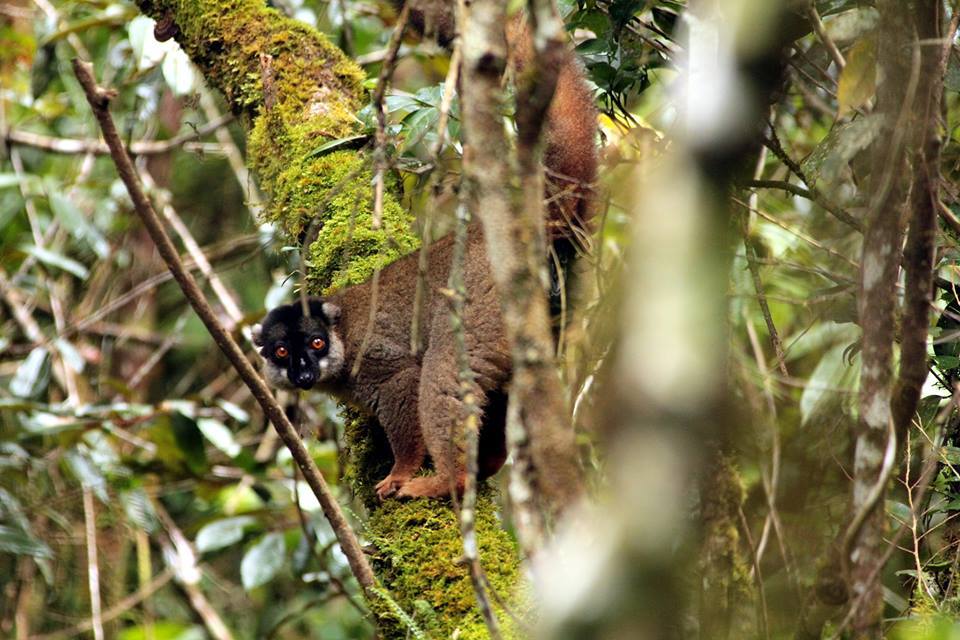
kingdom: Animalia
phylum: Chordata
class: Mammalia
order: Primates
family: Lemuridae
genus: Eulemur
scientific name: Eulemur fulvus
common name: Brown lemur
